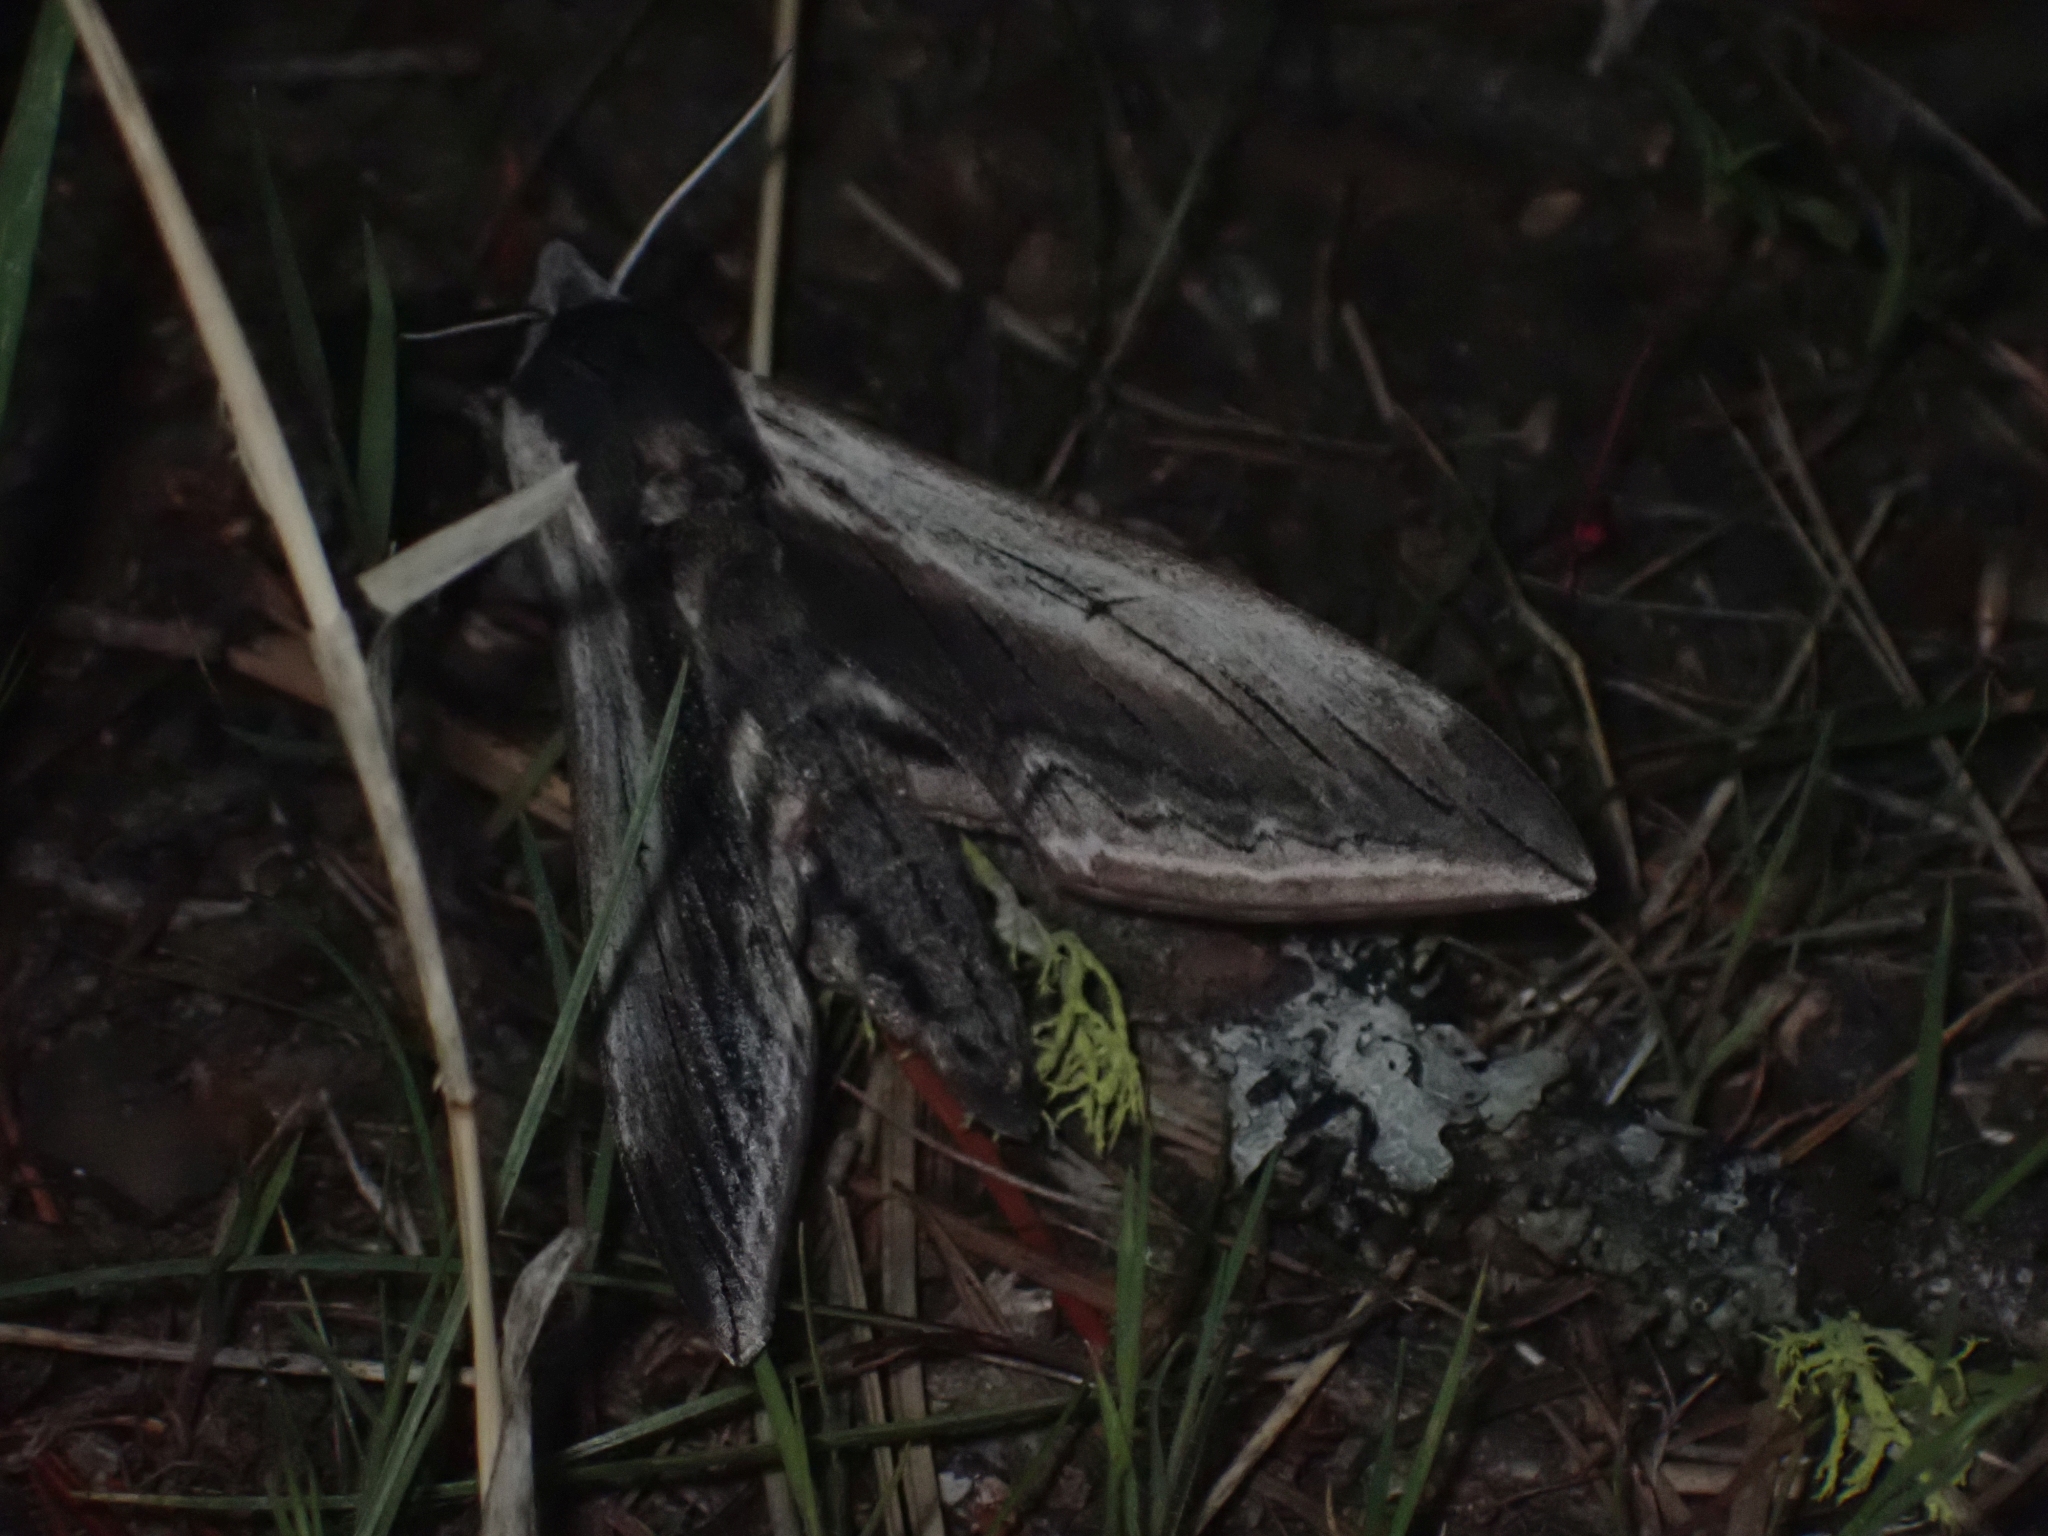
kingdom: Animalia
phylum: Arthropoda
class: Insecta
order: Lepidoptera
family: Sphingidae
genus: Sphinx
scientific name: Sphinx drupiferarum
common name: Wild cherry sphinx
